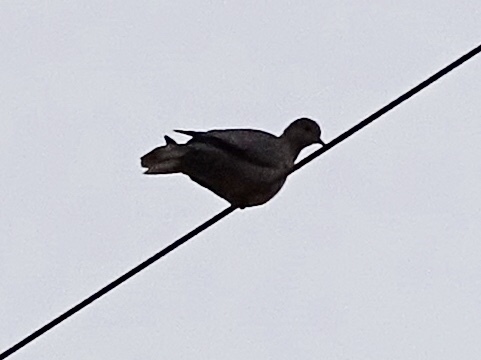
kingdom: Animalia
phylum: Chordata
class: Aves
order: Columbiformes
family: Columbidae
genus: Streptopelia
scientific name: Streptopelia decaocto
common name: Eurasian collared dove
